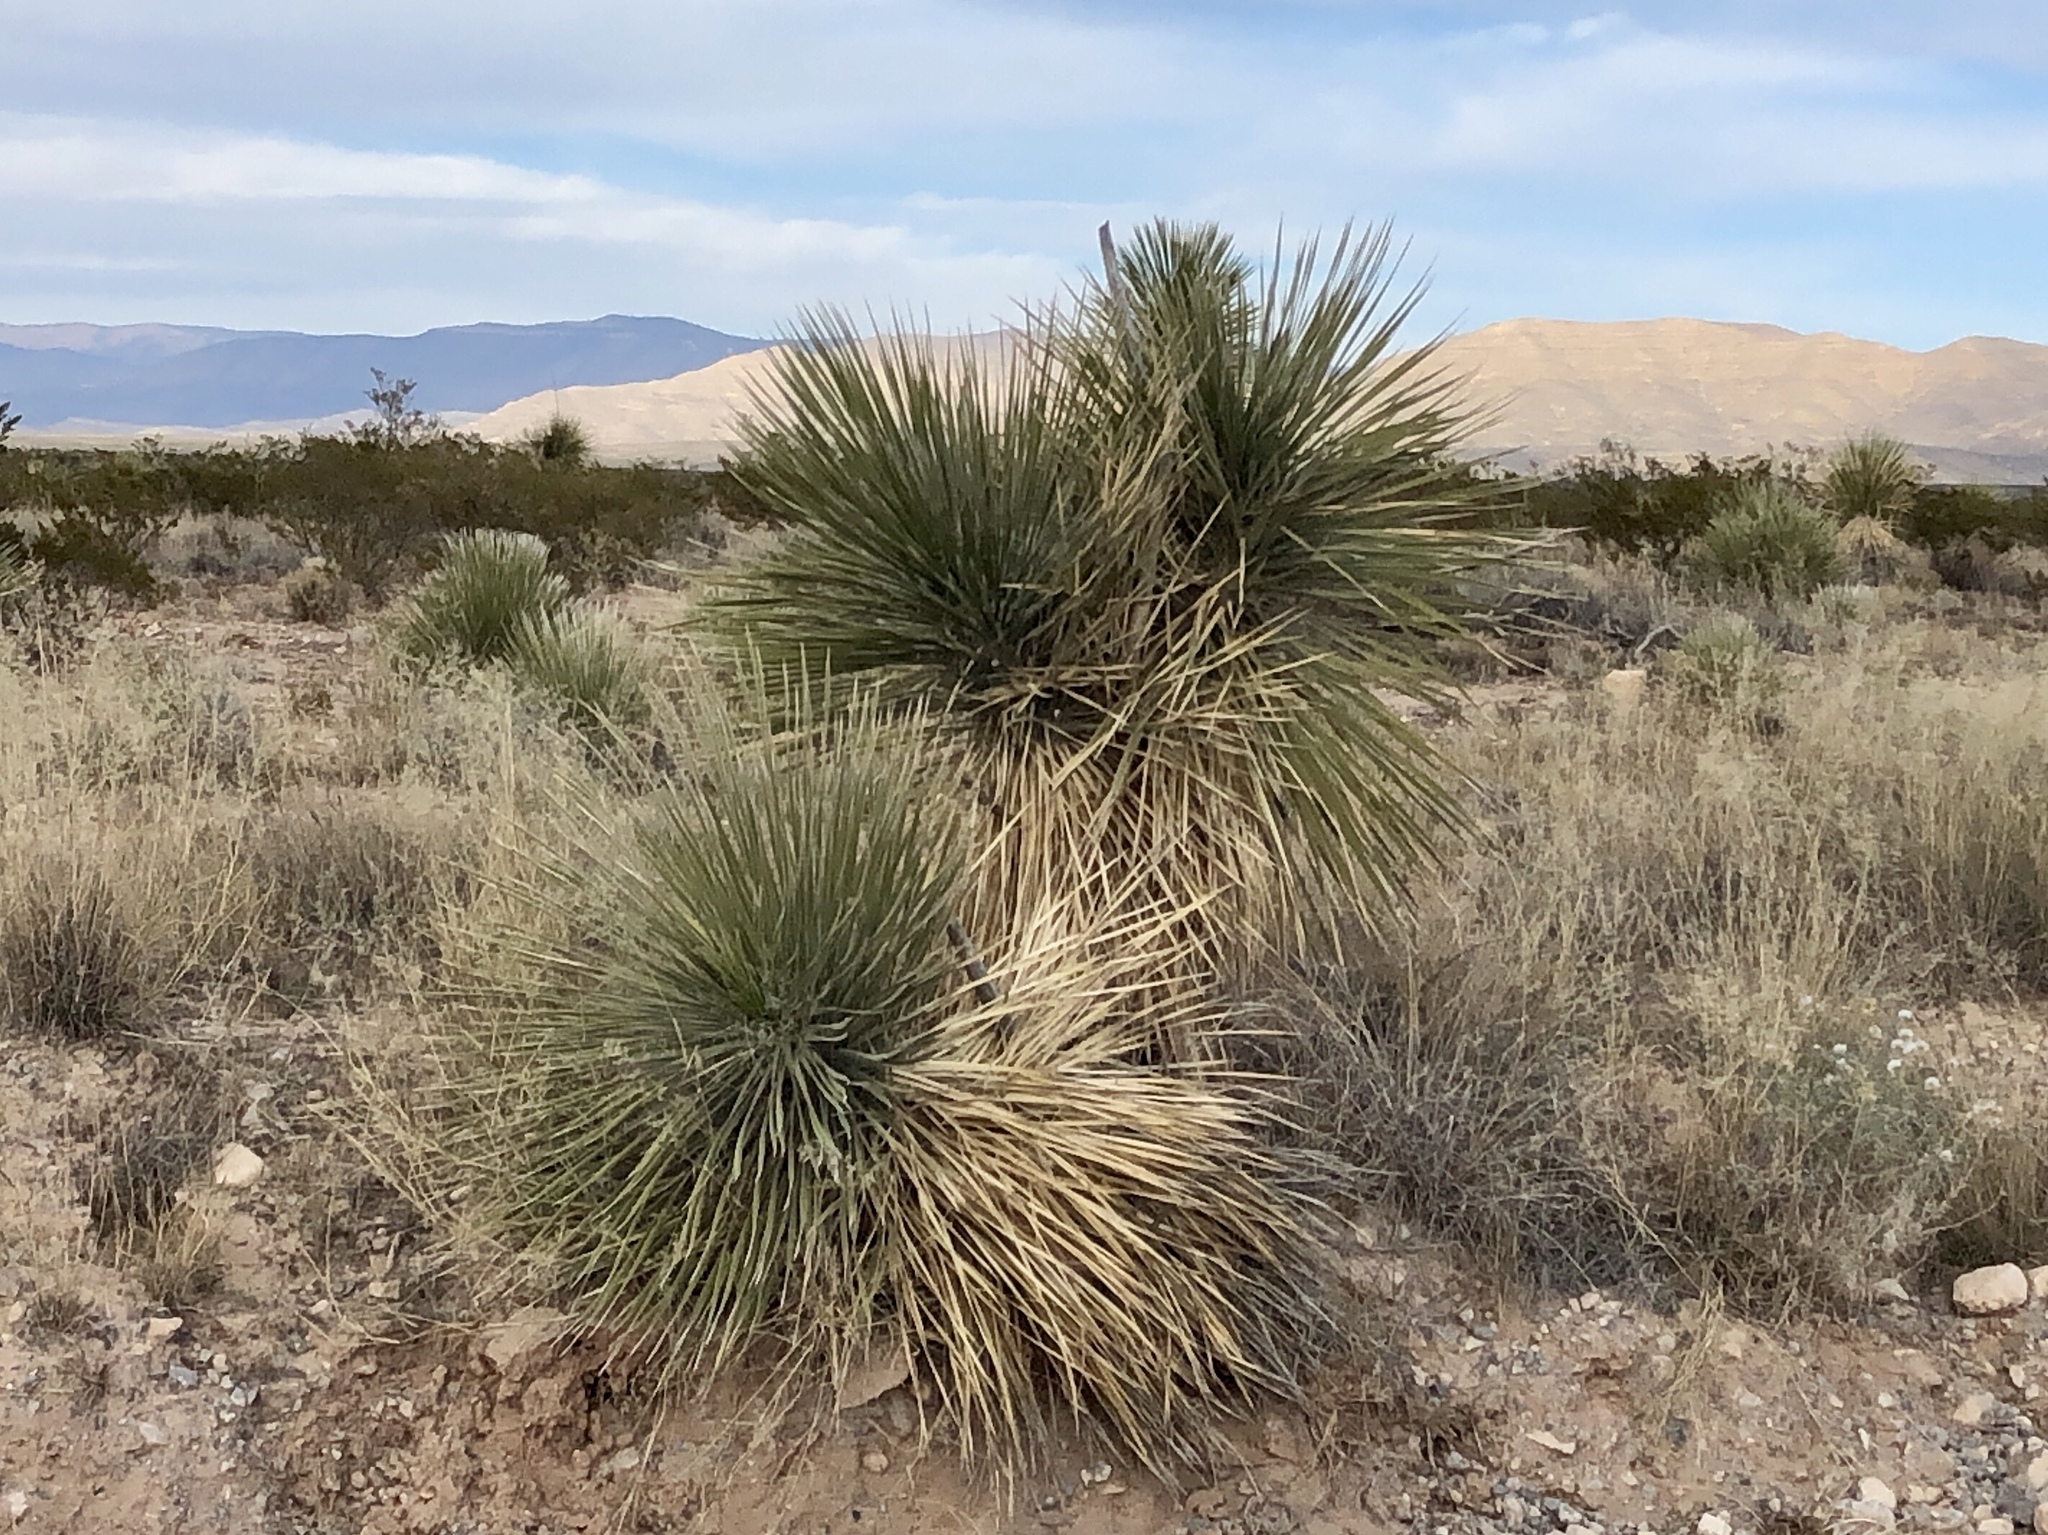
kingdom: Plantae
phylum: Tracheophyta
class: Liliopsida
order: Asparagales
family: Asparagaceae
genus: Yucca
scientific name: Yucca elata
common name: Palmella
